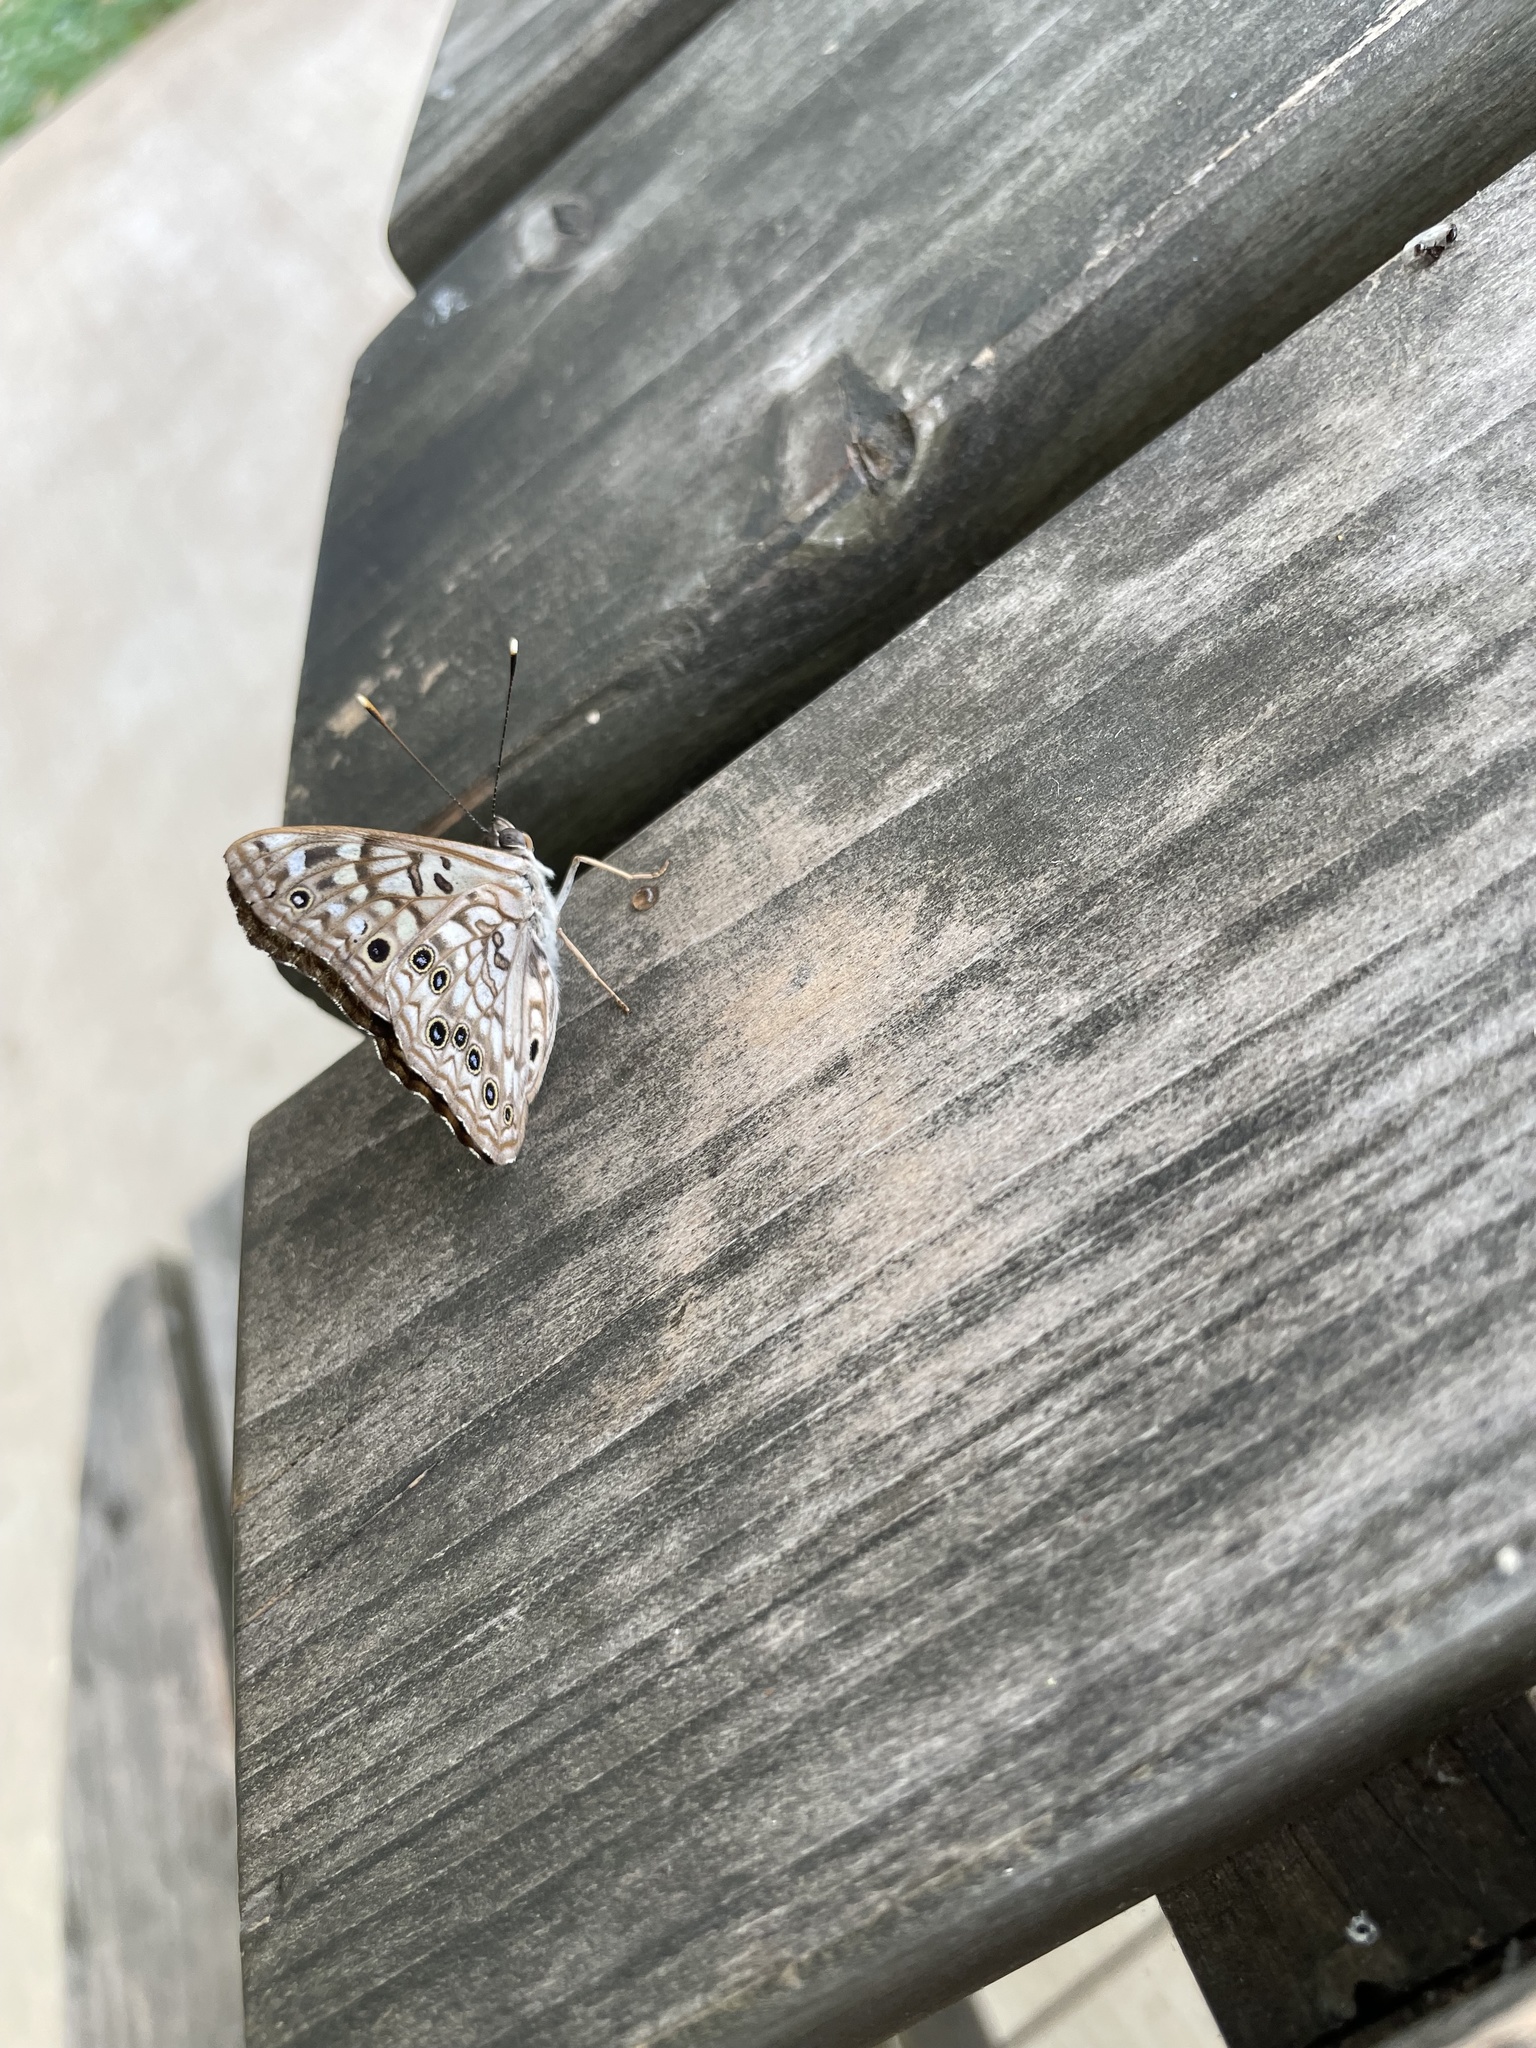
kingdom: Animalia
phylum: Arthropoda
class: Insecta
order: Lepidoptera
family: Nymphalidae
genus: Asterocampa
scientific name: Asterocampa celtis
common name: Hackberry emperor
